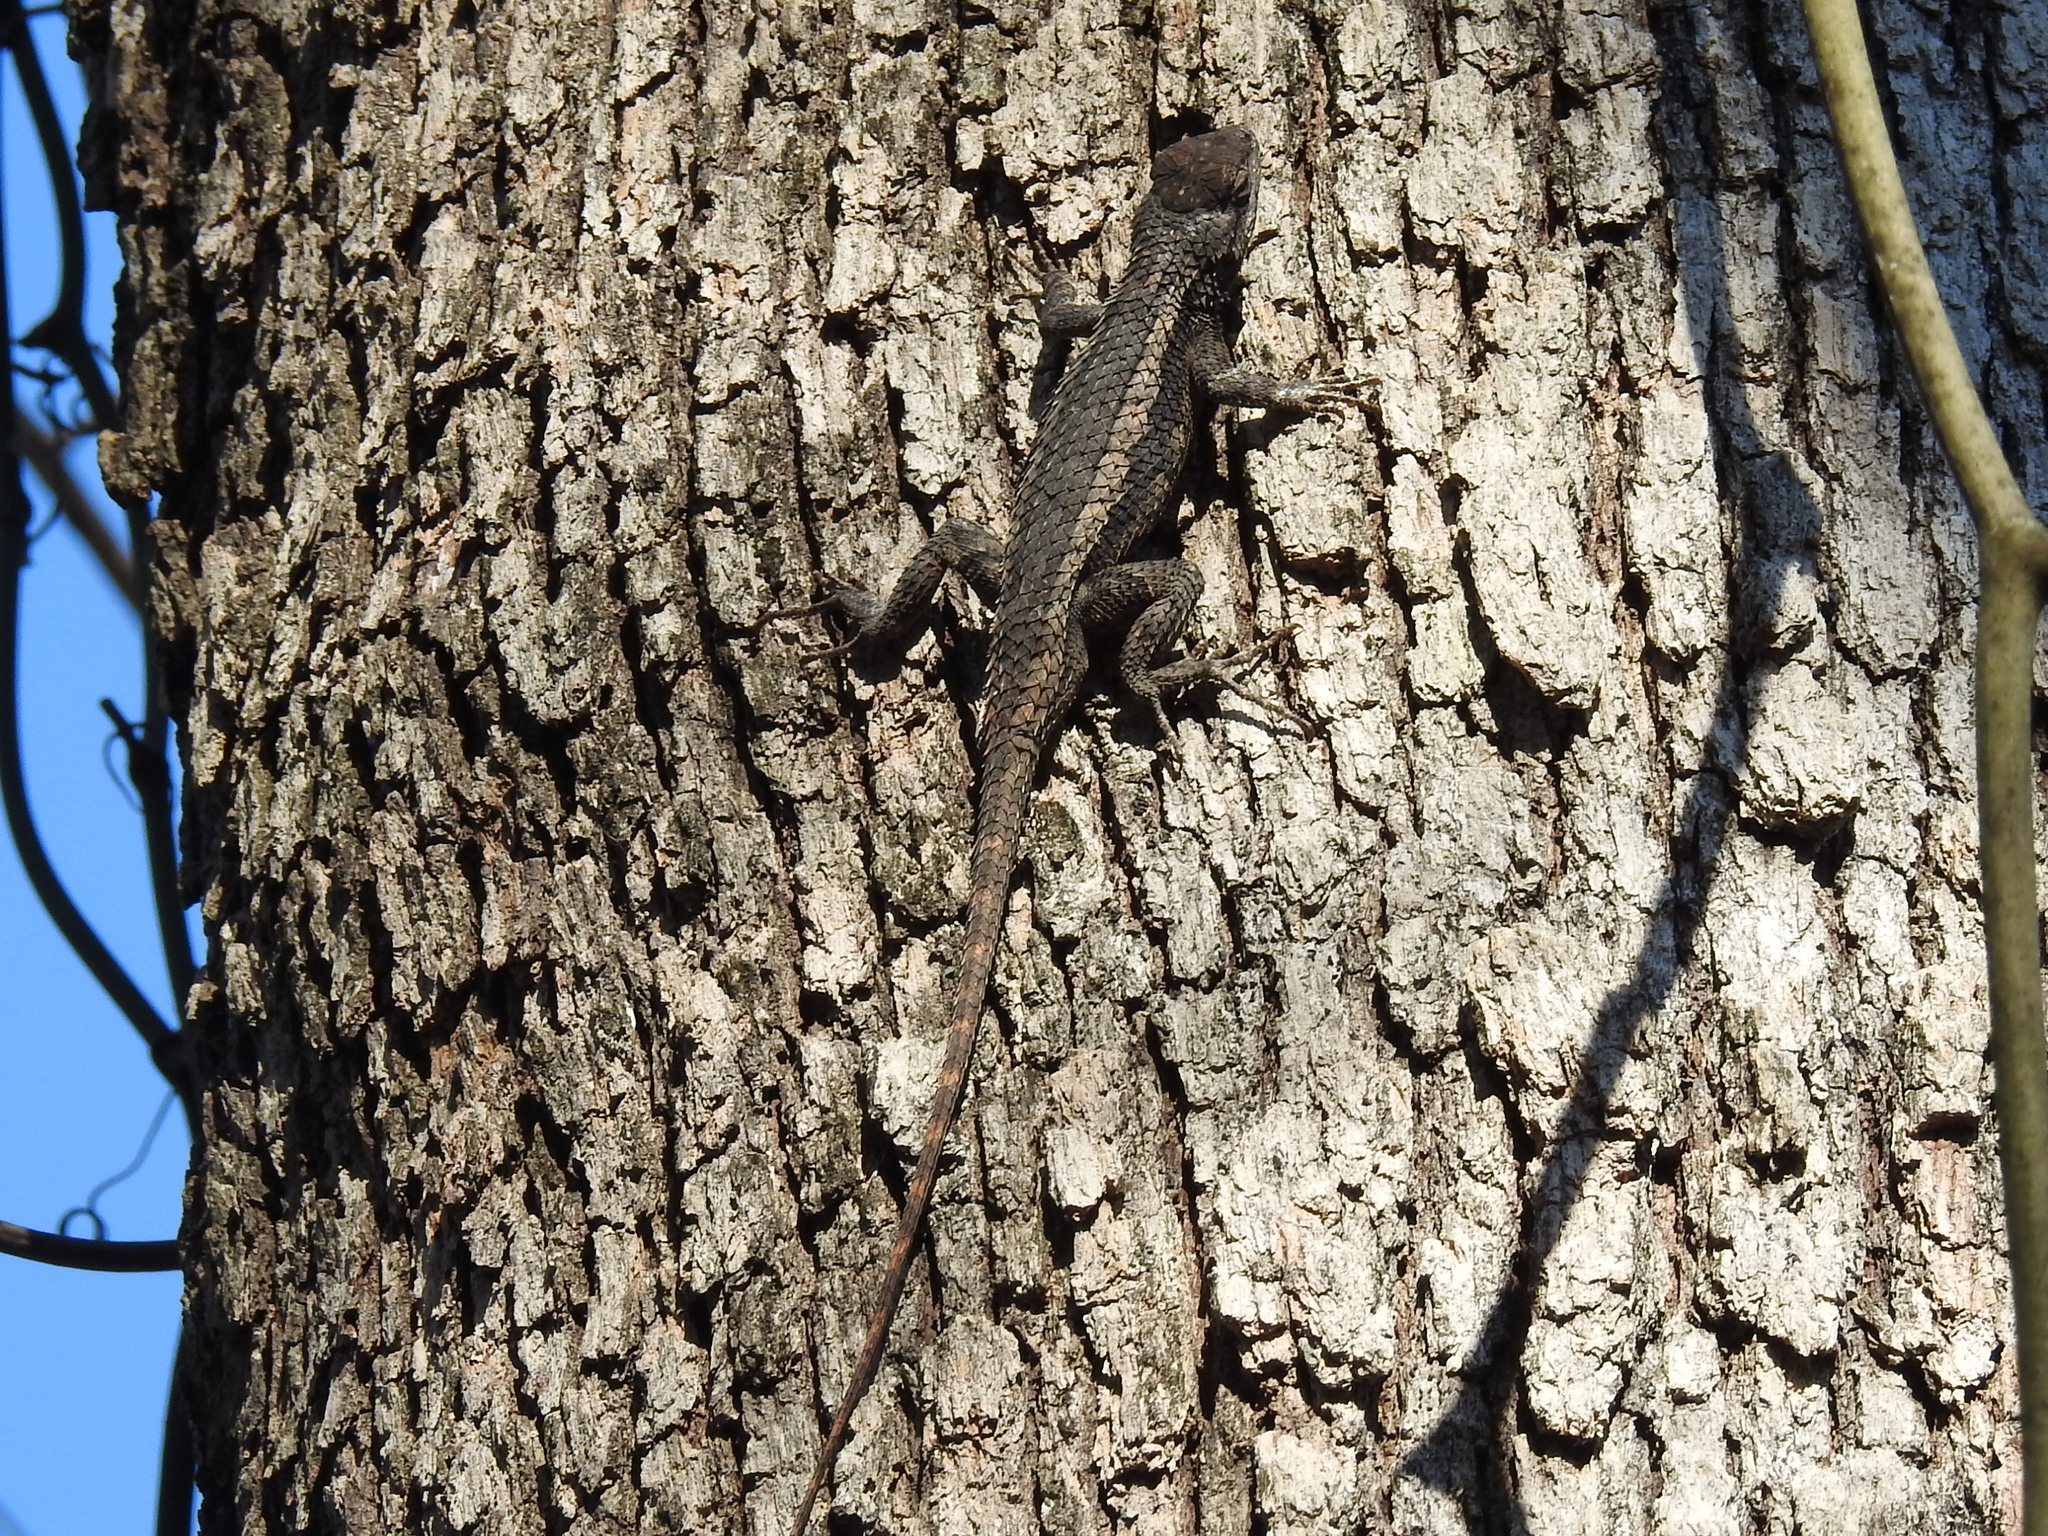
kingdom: Animalia
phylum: Chordata
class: Squamata
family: Phrynosomatidae
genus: Sceloporus
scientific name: Sceloporus olivaceus
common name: Texas spiny lizard
